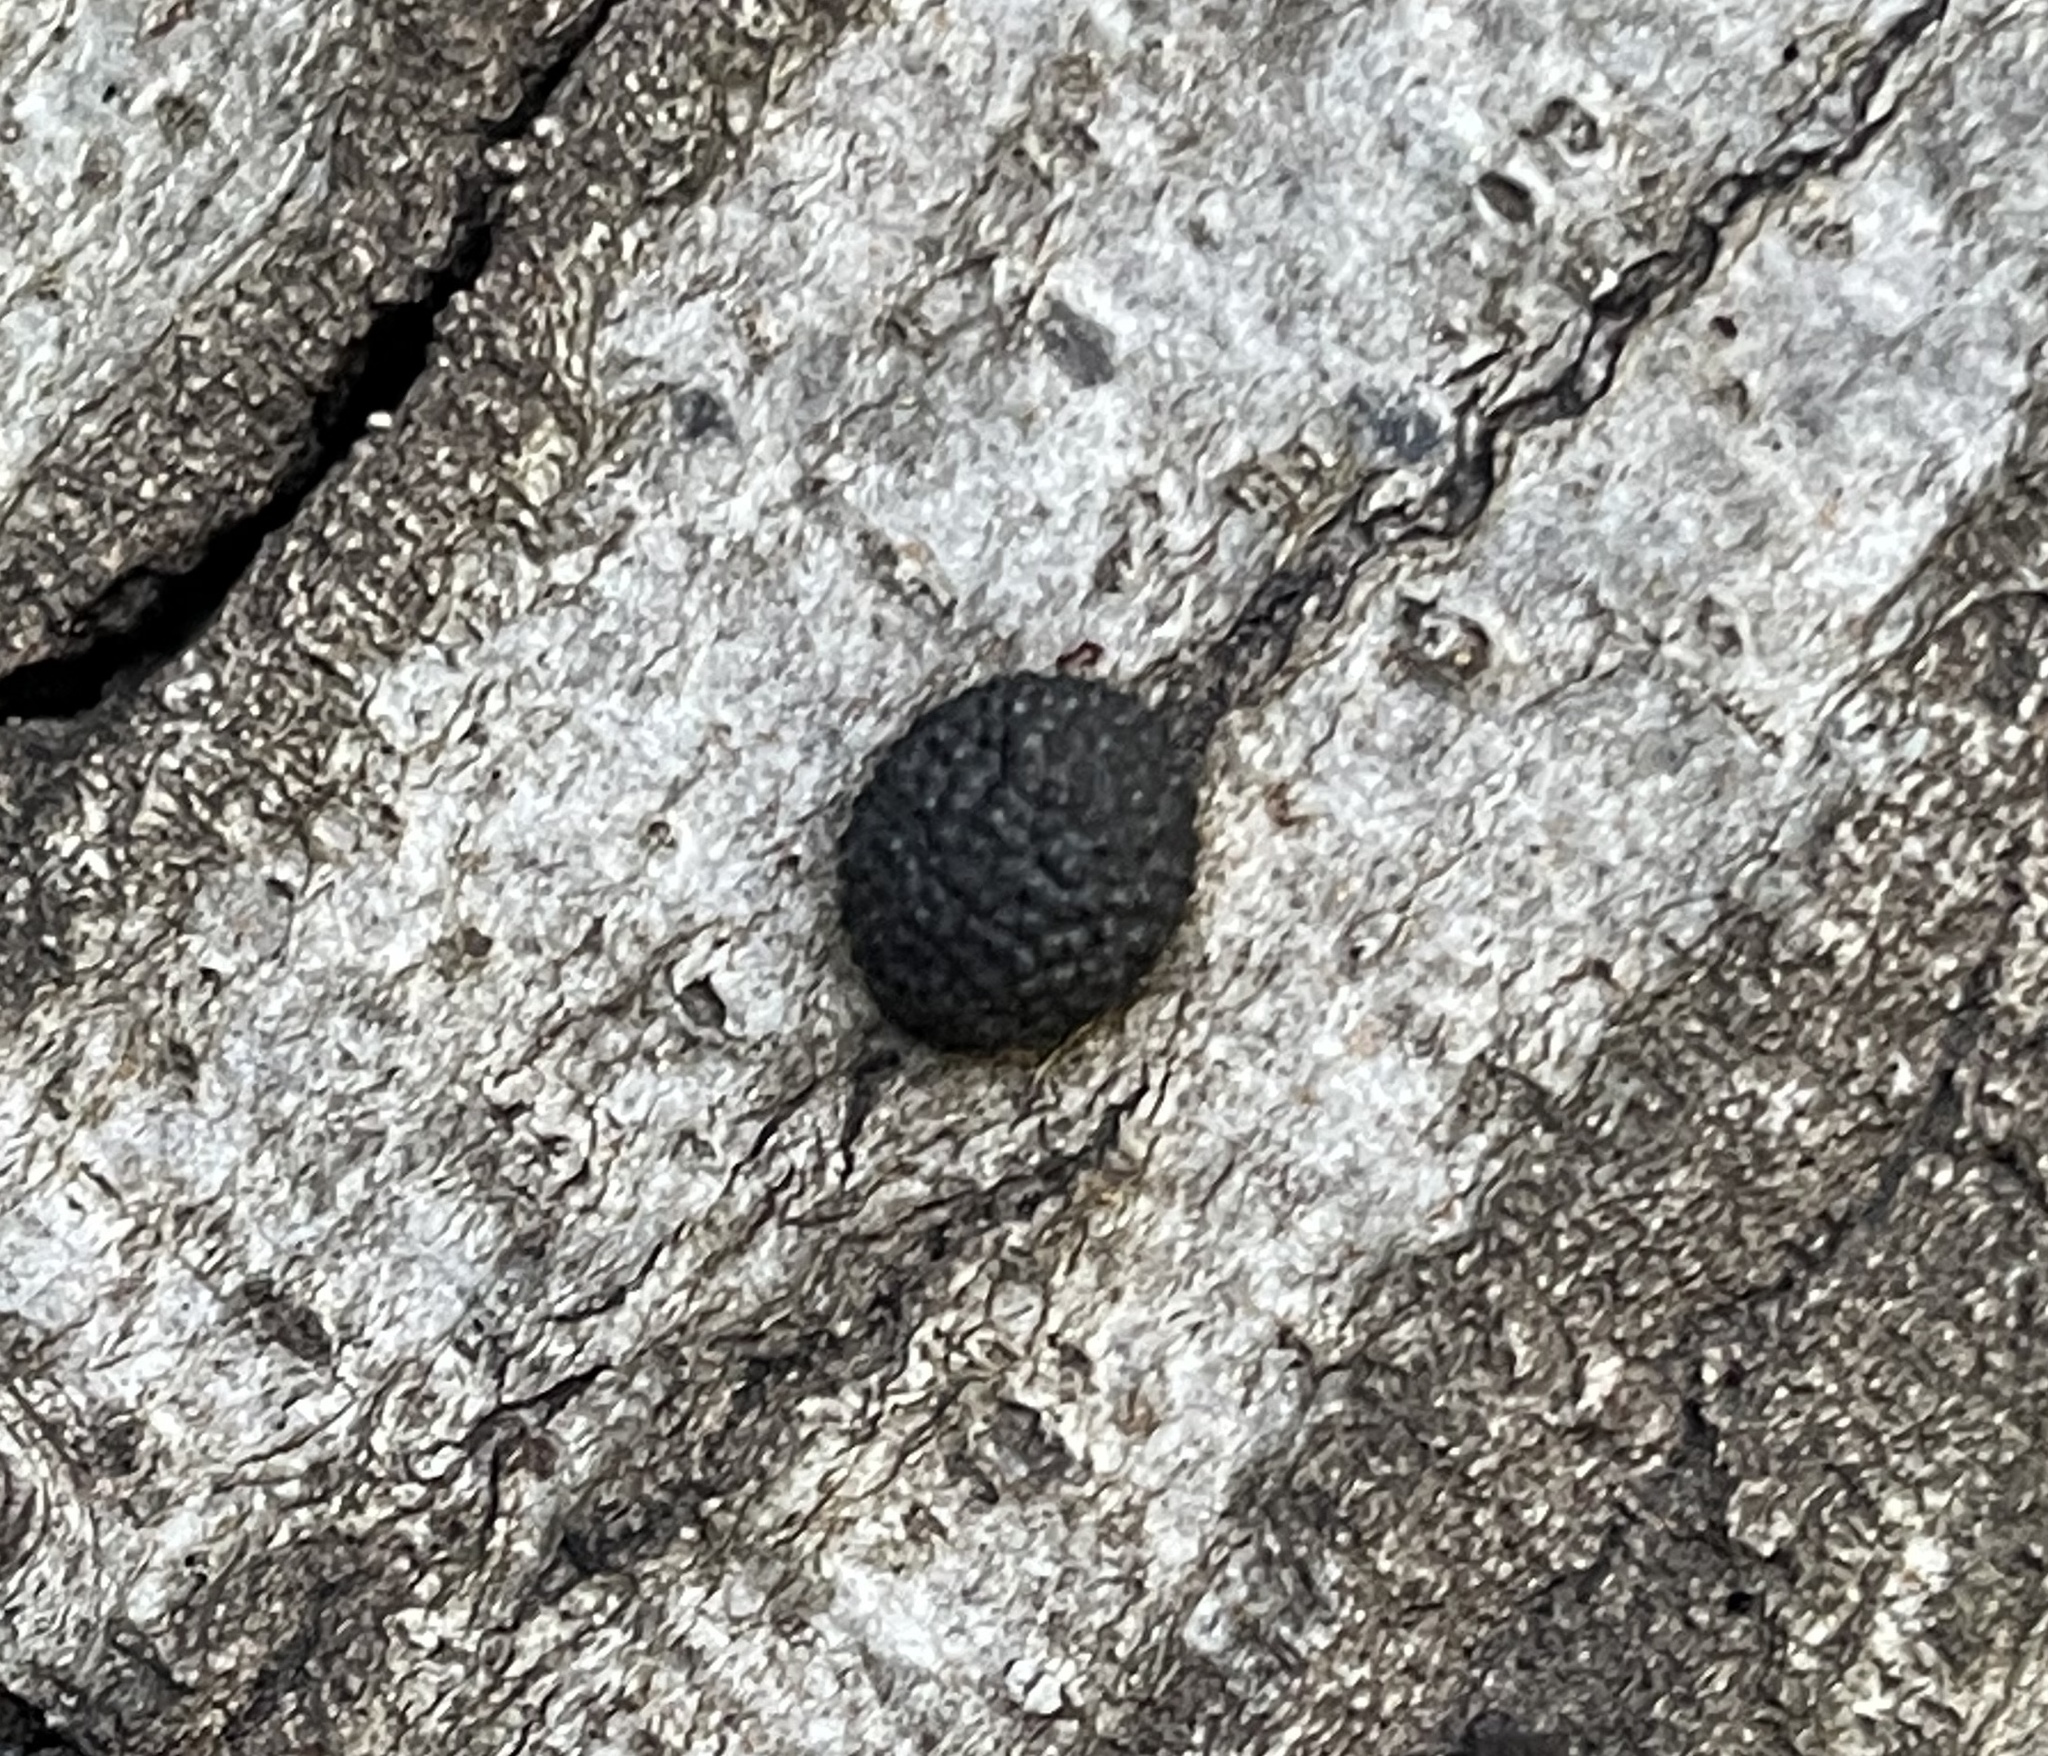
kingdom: Fungi
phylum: Ascomycota
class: Sordariomycetes
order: Xylariales
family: Hypoxylaceae
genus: Annulohypoxylon
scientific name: Annulohypoxylon thouarsianum
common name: Cramp balls
